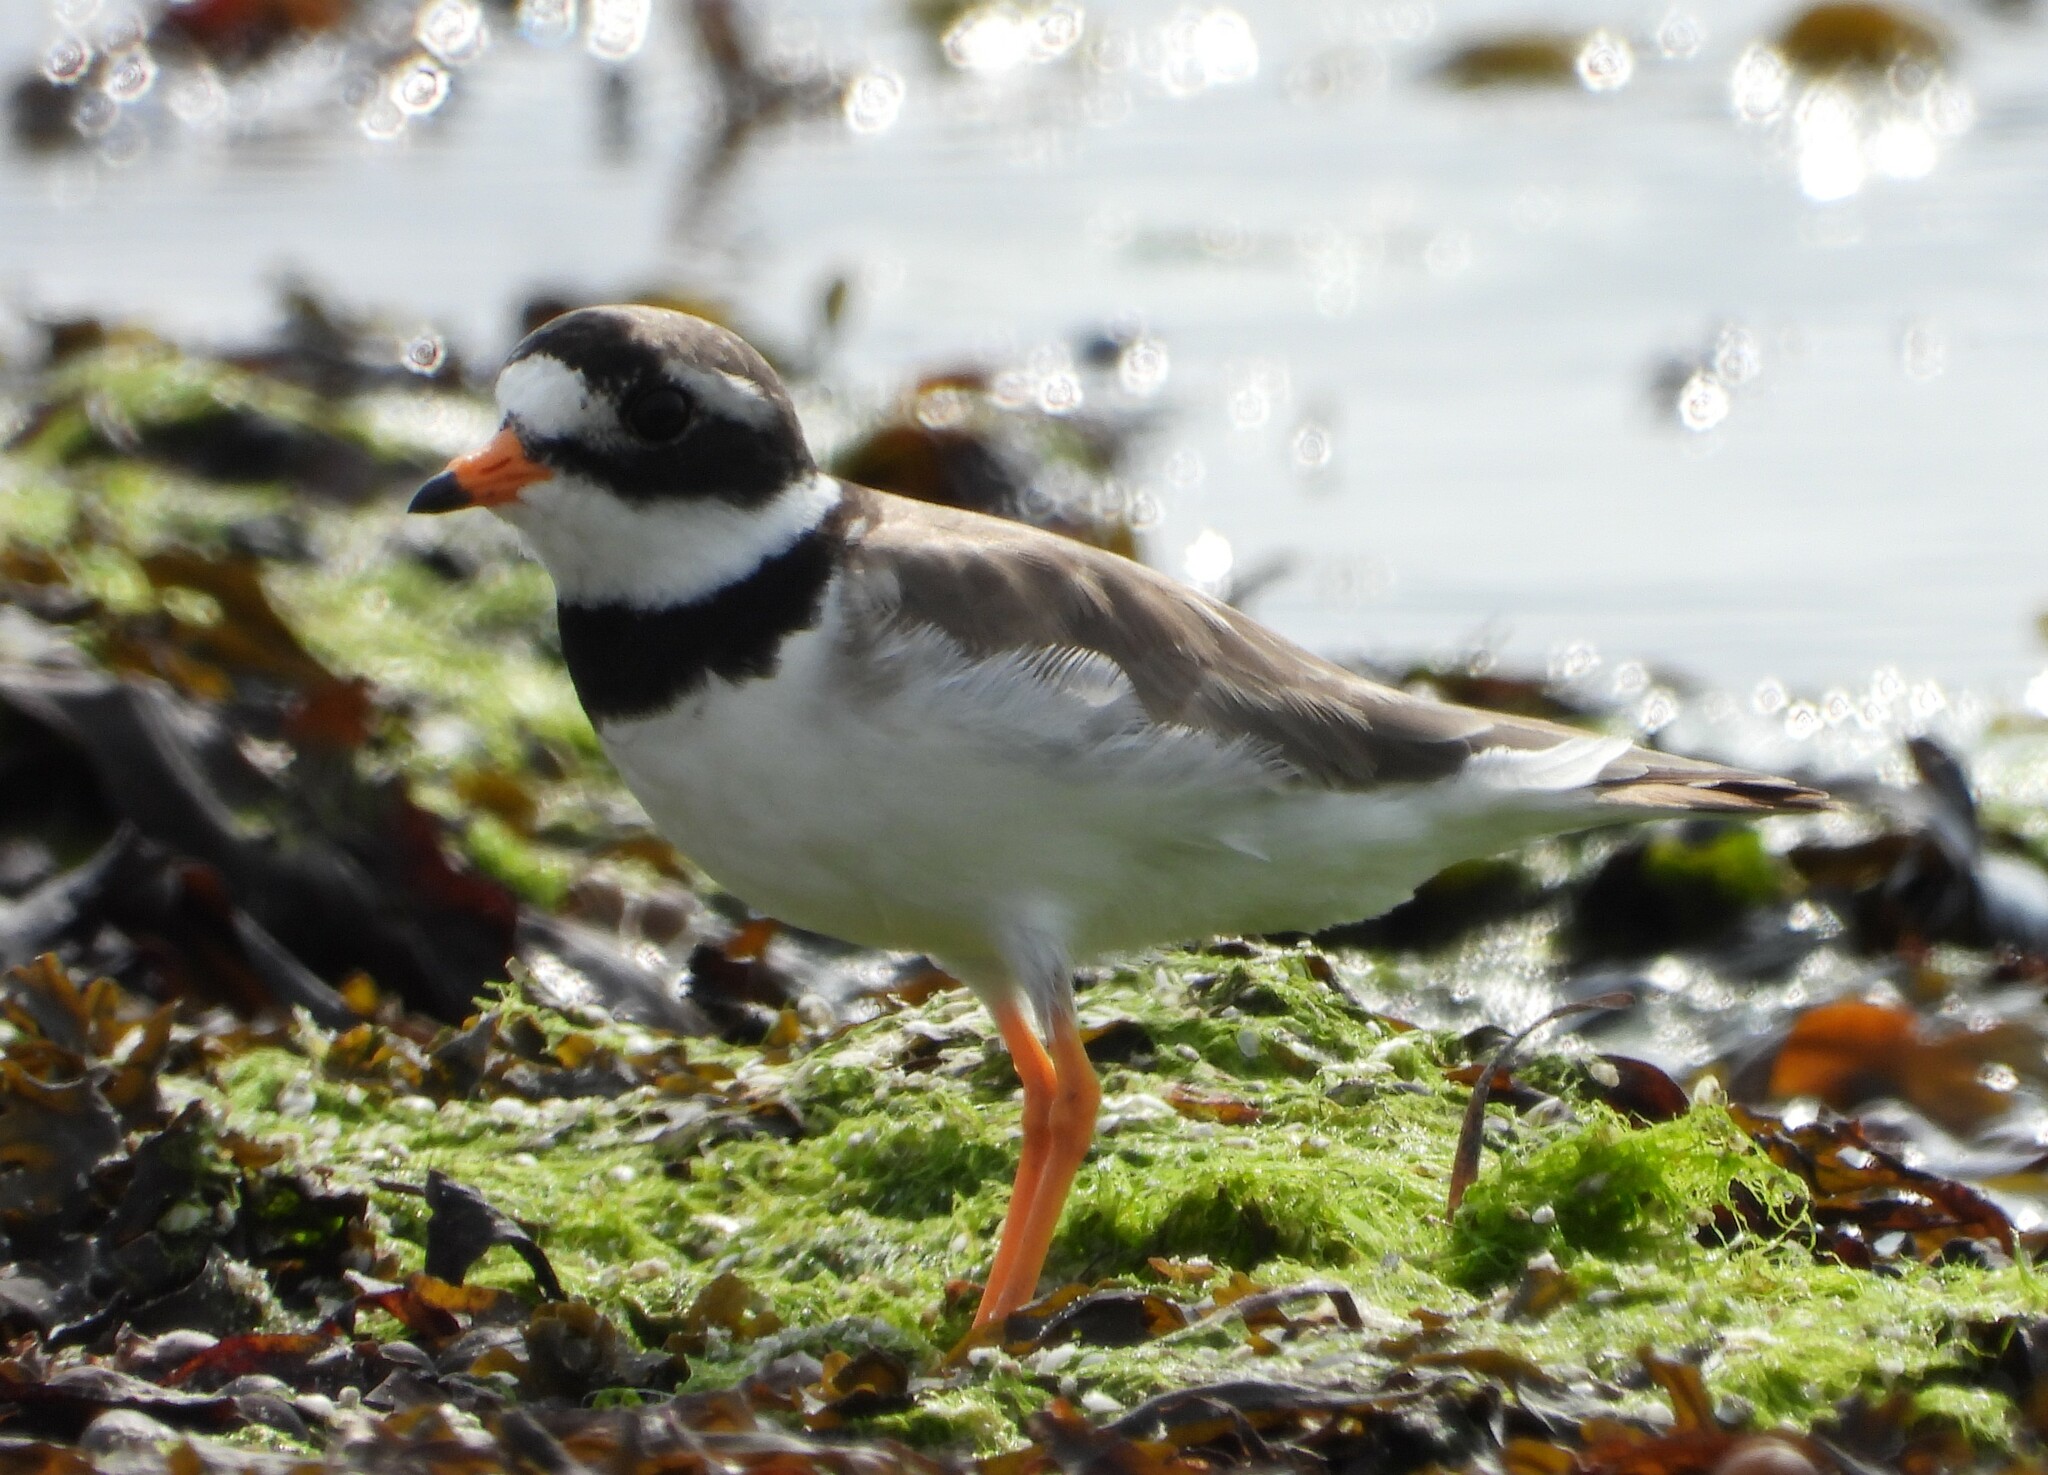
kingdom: Animalia
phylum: Chordata
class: Aves
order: Charadriiformes
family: Charadriidae
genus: Charadrius
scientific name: Charadrius hiaticula
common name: Common ringed plover
